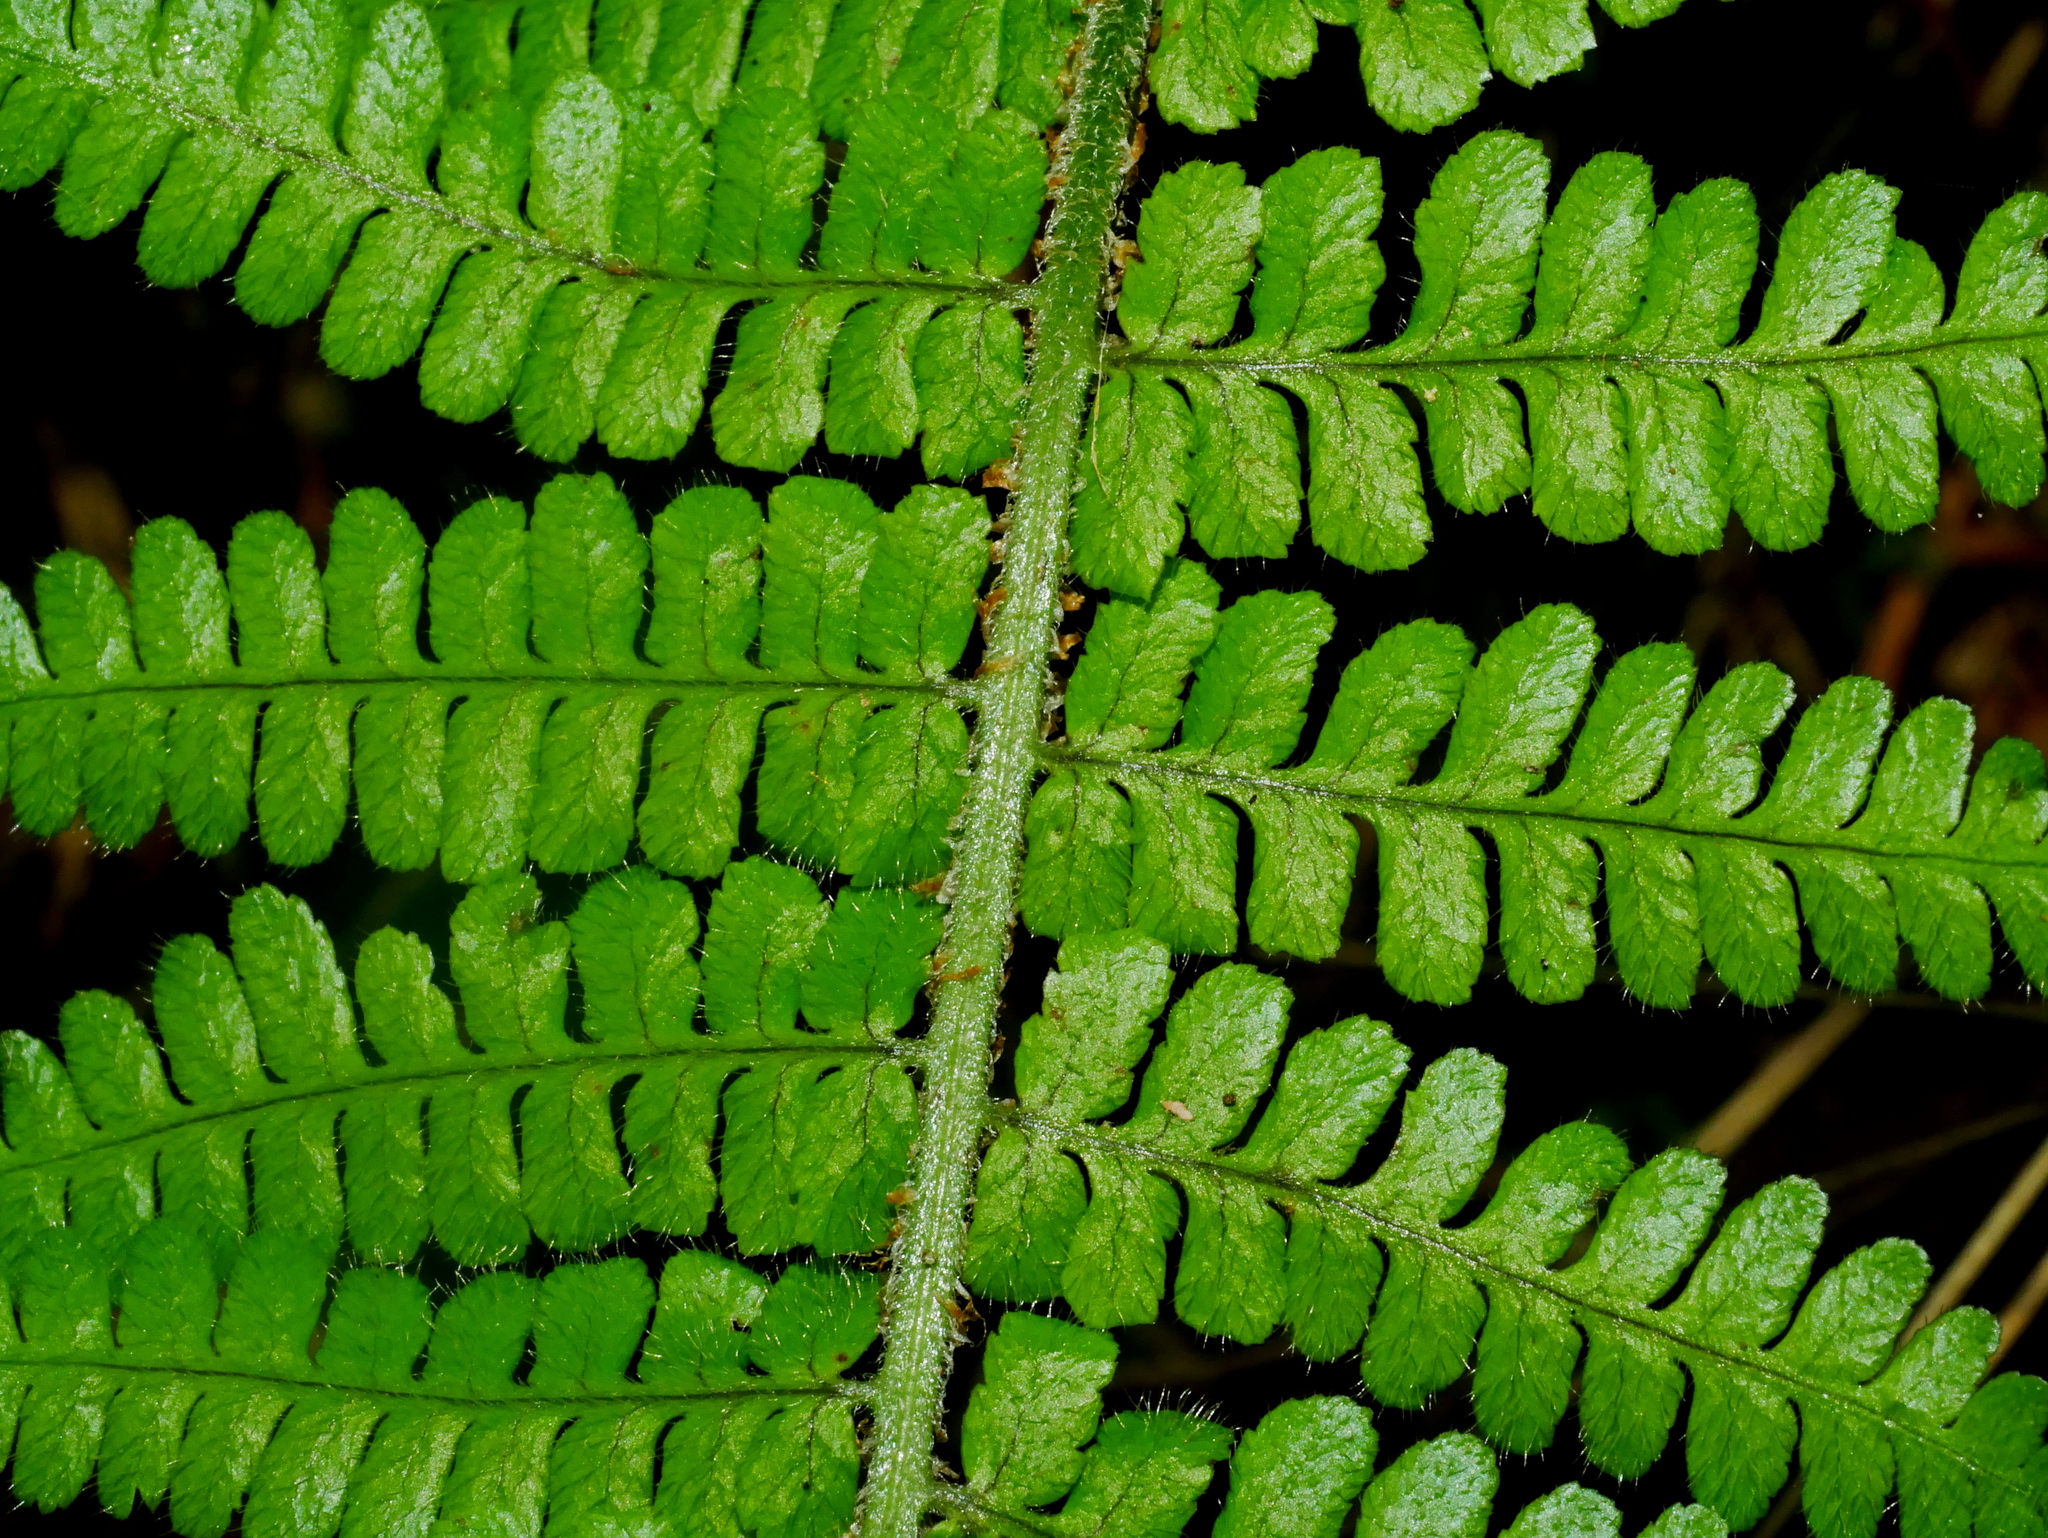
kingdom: Plantae
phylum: Tracheophyta
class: Polypodiopsida
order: Polypodiales
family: Dryopteridaceae
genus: Dryopteris
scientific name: Dryopteris kawakamii
